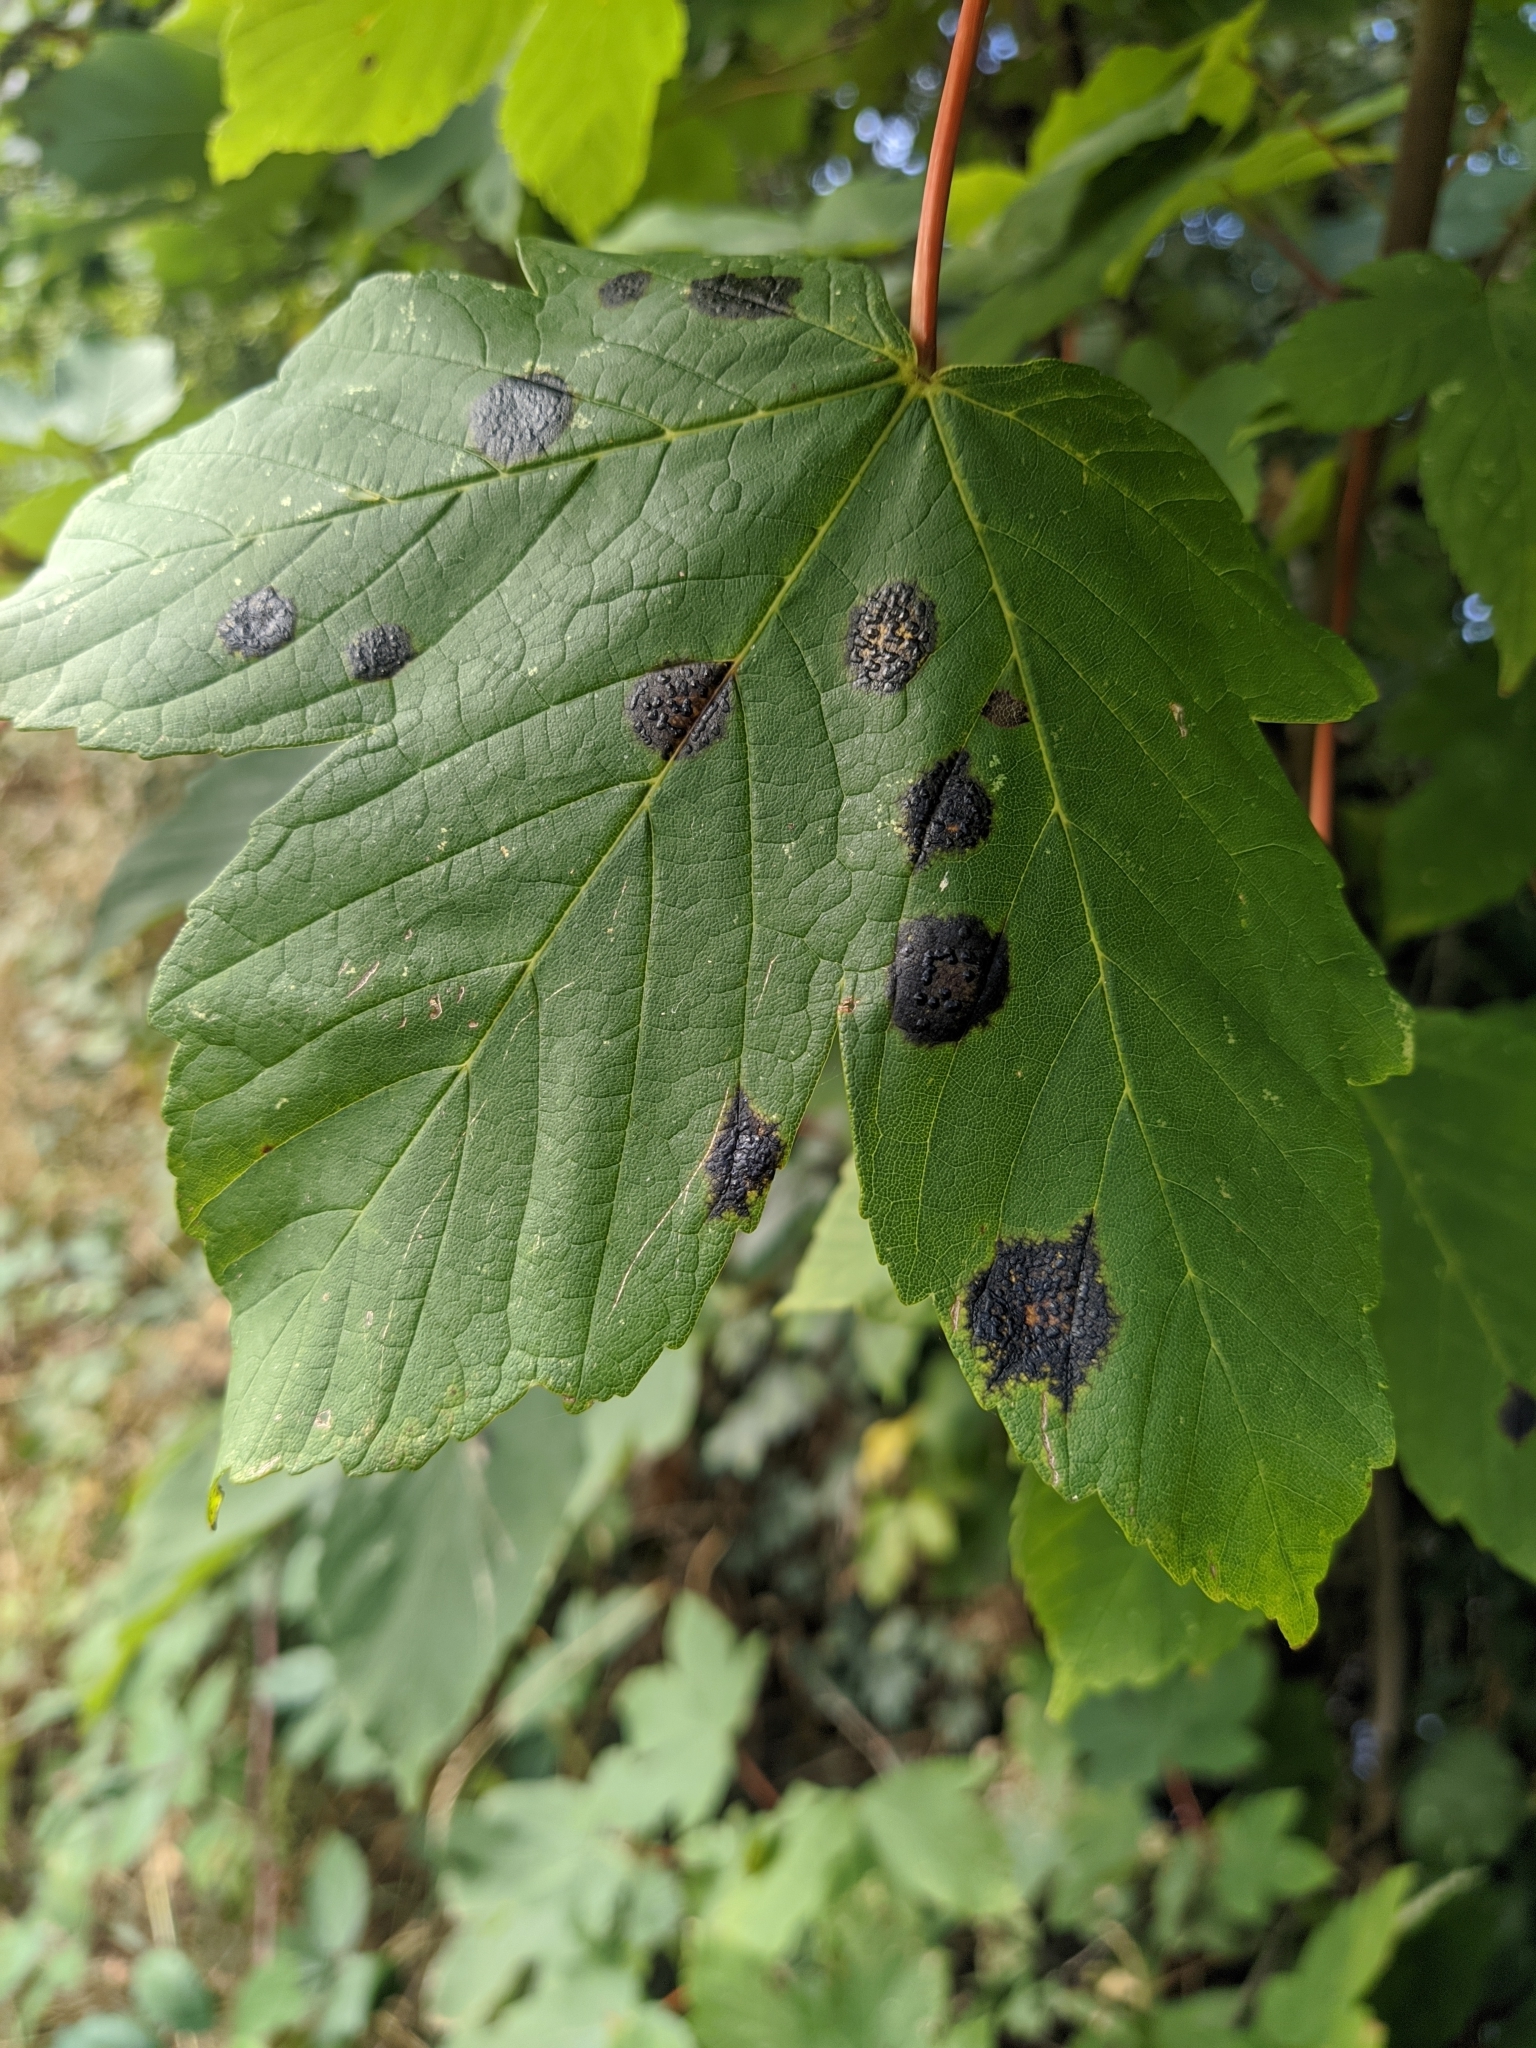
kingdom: Fungi
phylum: Ascomycota
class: Leotiomycetes
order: Rhytismatales
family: Rhytismataceae
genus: Rhytisma
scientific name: Rhytisma acerinum
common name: European tar spot
